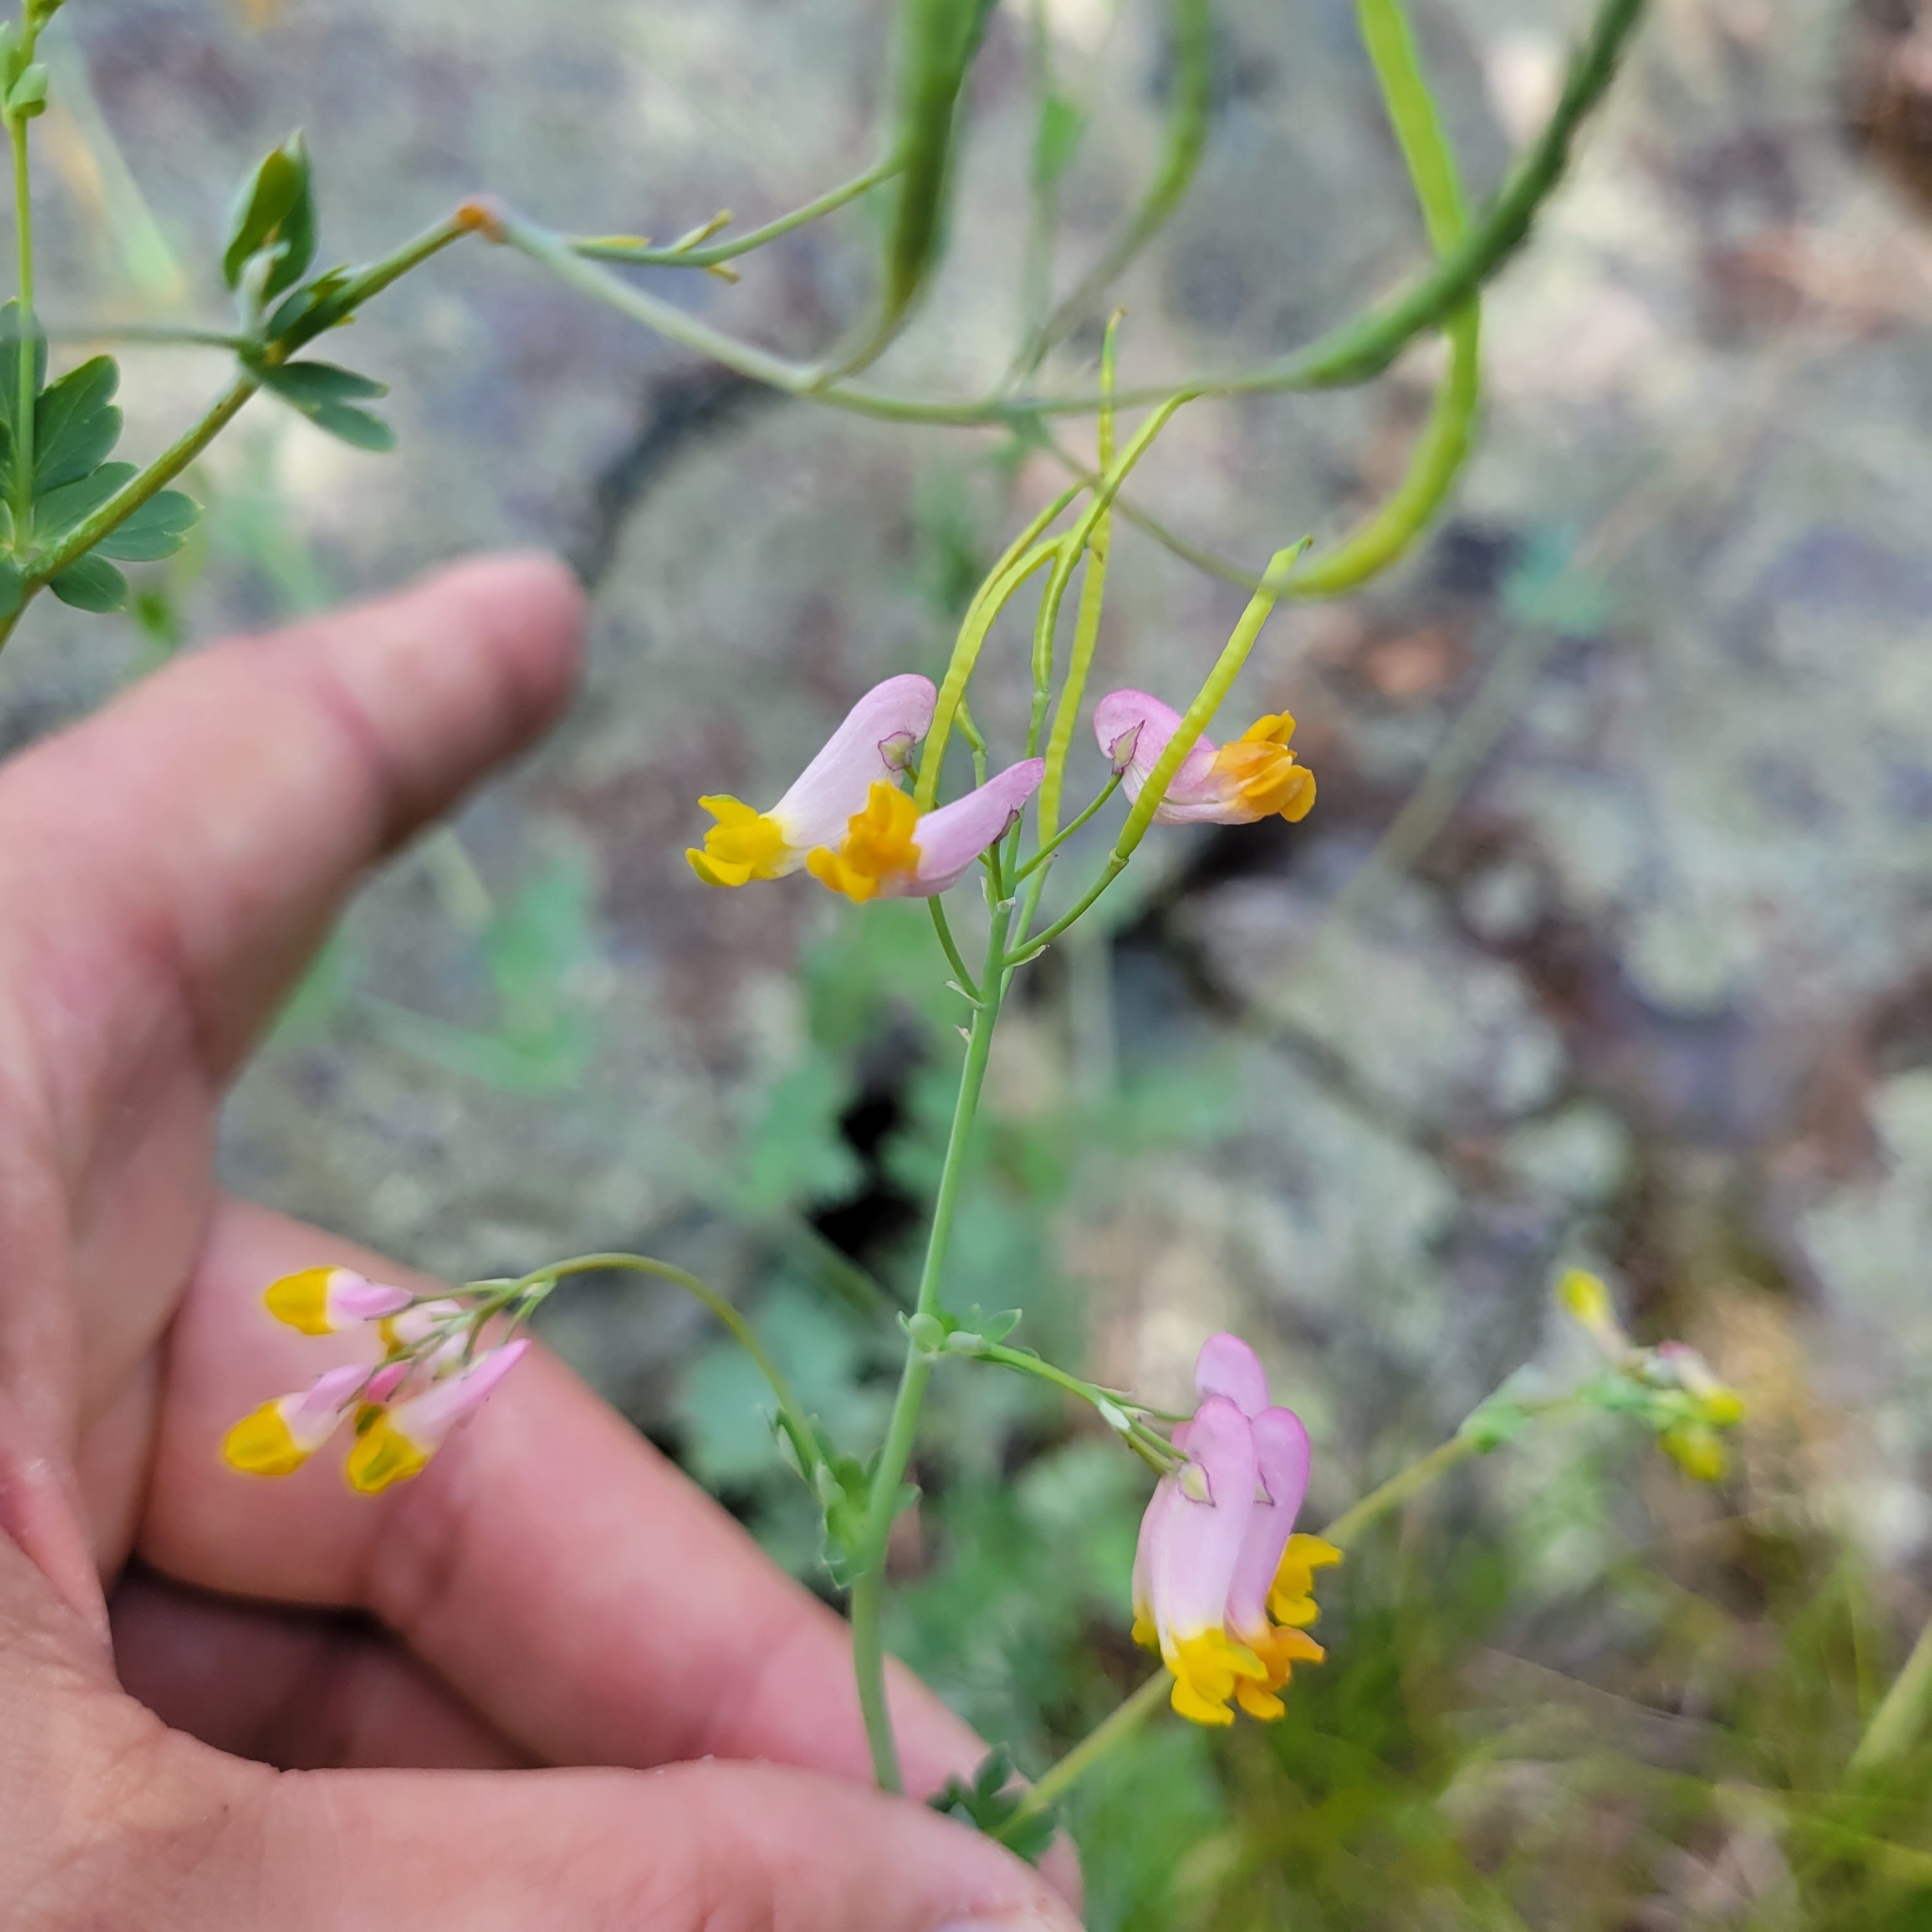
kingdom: Plantae
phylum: Tracheophyta
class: Magnoliopsida
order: Ranunculales
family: Papaveraceae
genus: Capnoides
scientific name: Capnoides sempervirens
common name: Rock harlequin
